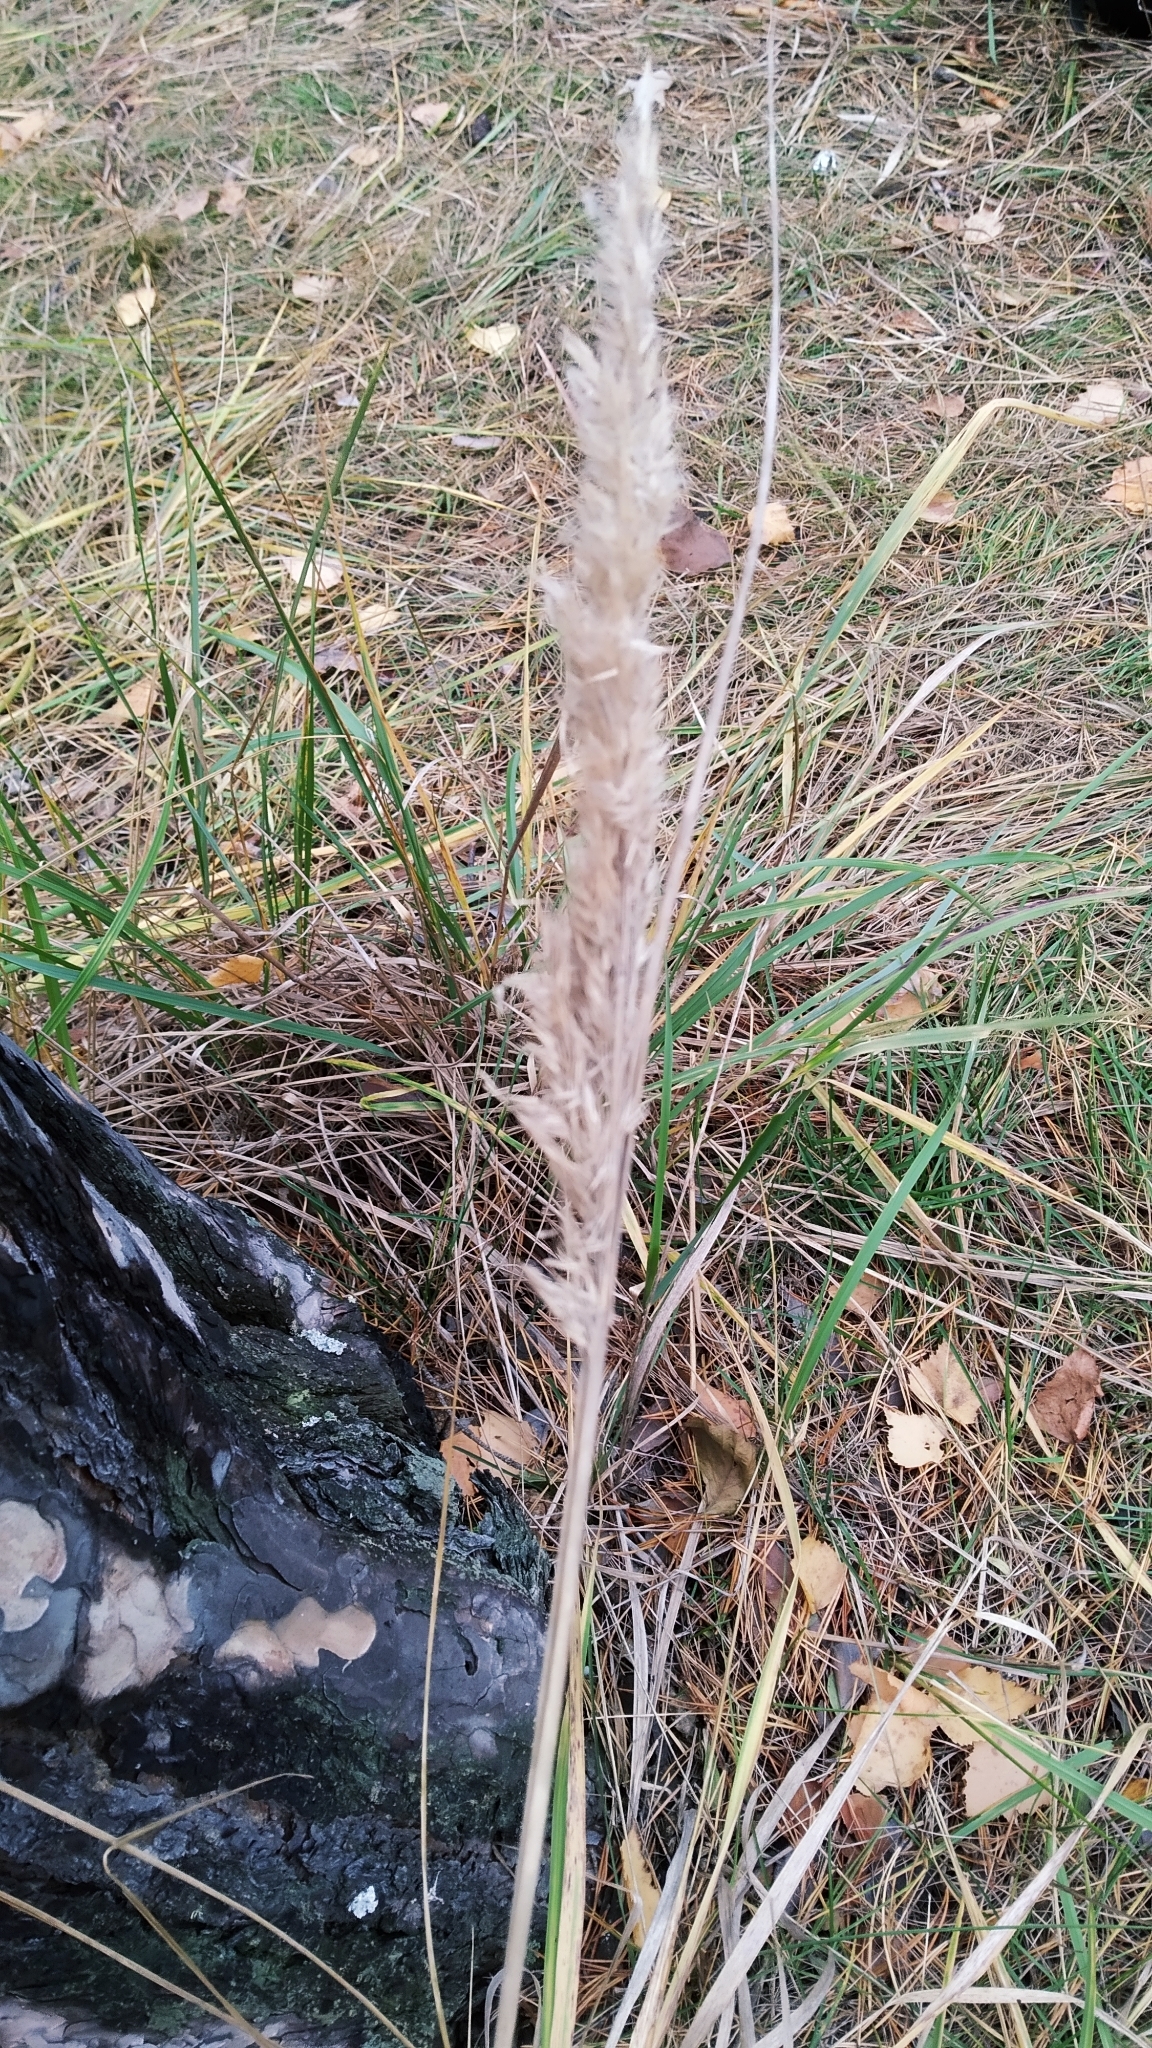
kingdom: Plantae
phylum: Tracheophyta
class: Liliopsida
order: Poales
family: Poaceae
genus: Calamagrostis
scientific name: Calamagrostis epigejos
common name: Wood small-reed
